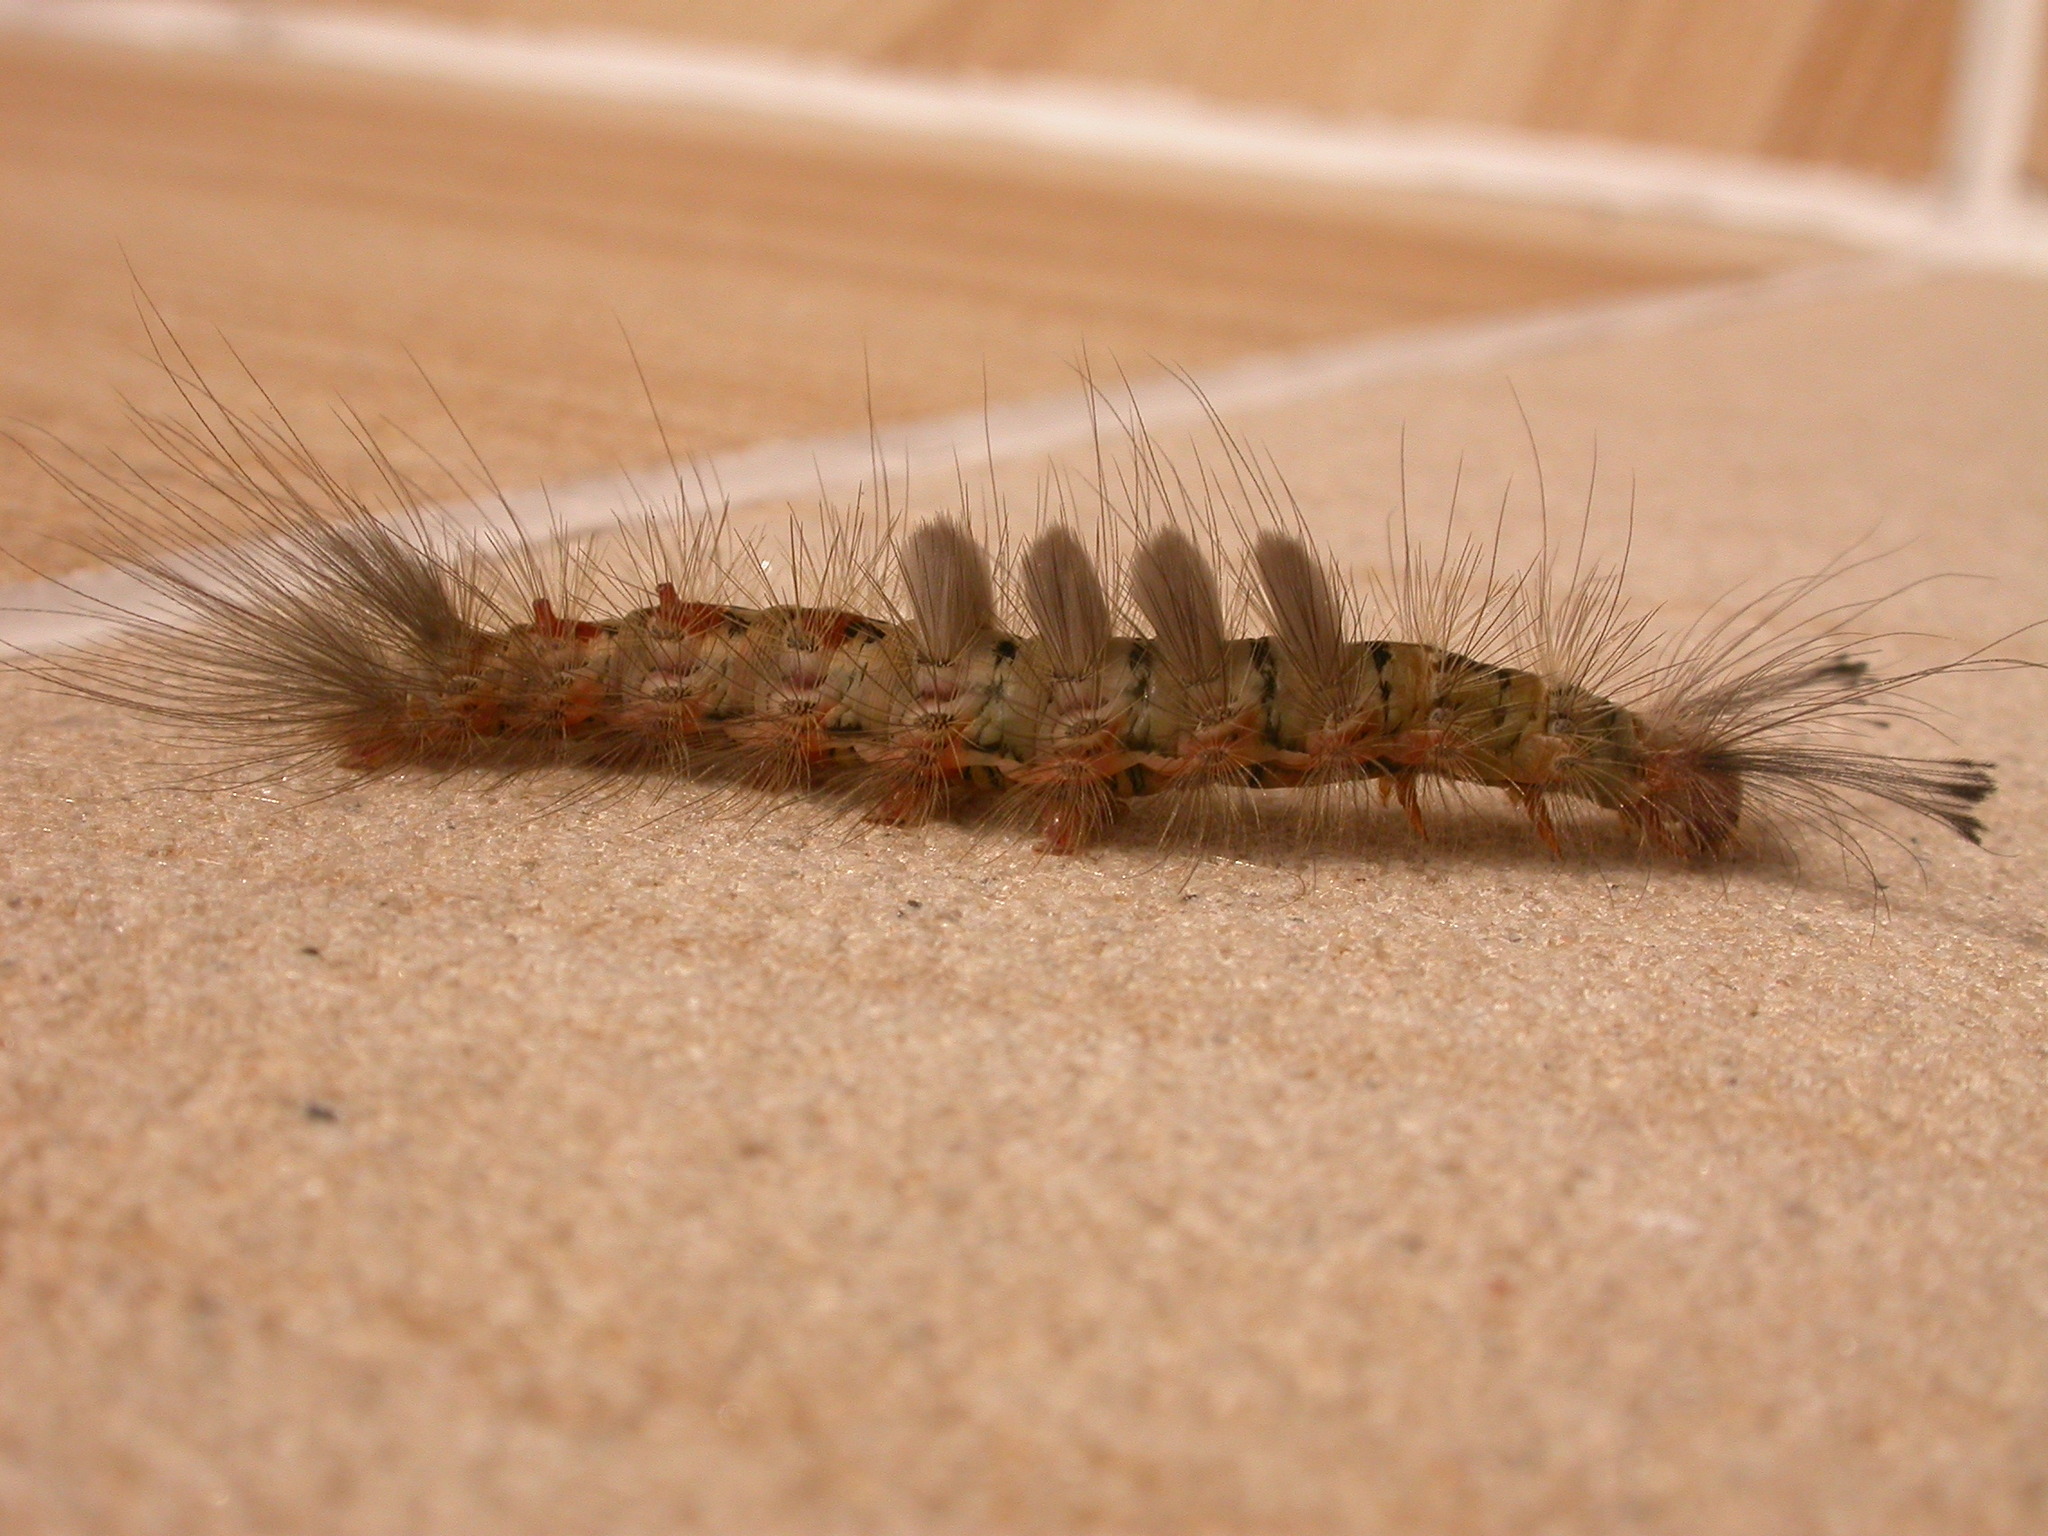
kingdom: Animalia
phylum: Arthropoda
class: Insecta
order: Lepidoptera
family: Erebidae
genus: Orgyia
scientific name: Orgyia
